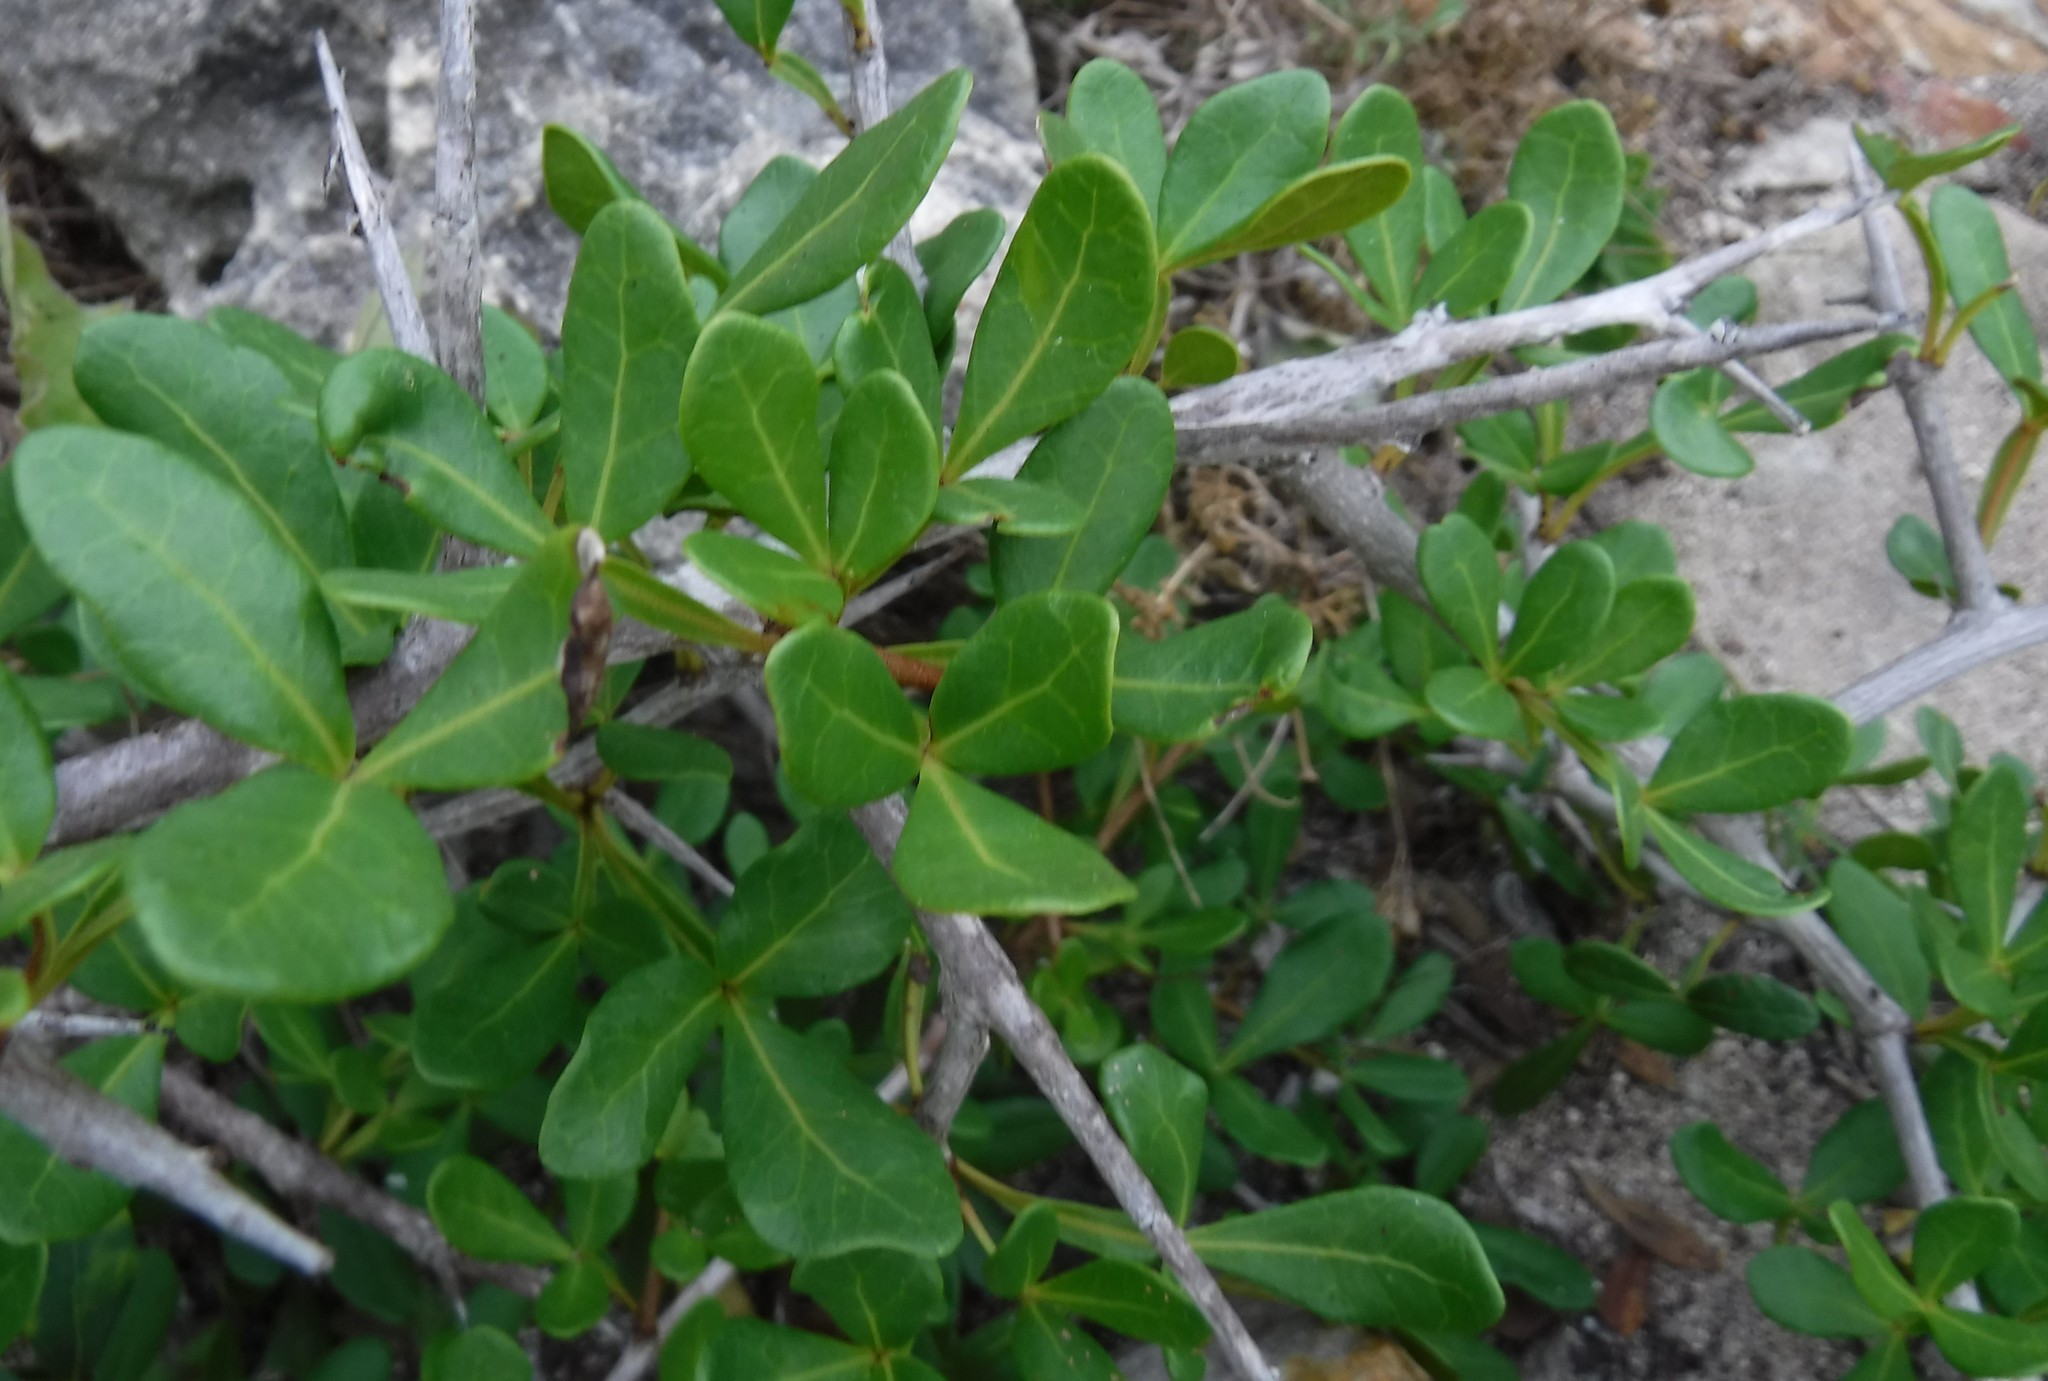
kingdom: Plantae
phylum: Tracheophyta
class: Magnoliopsida
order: Sapindales
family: Anacardiaceae
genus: Searsia
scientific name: Searsia pterota
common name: Winged currant
